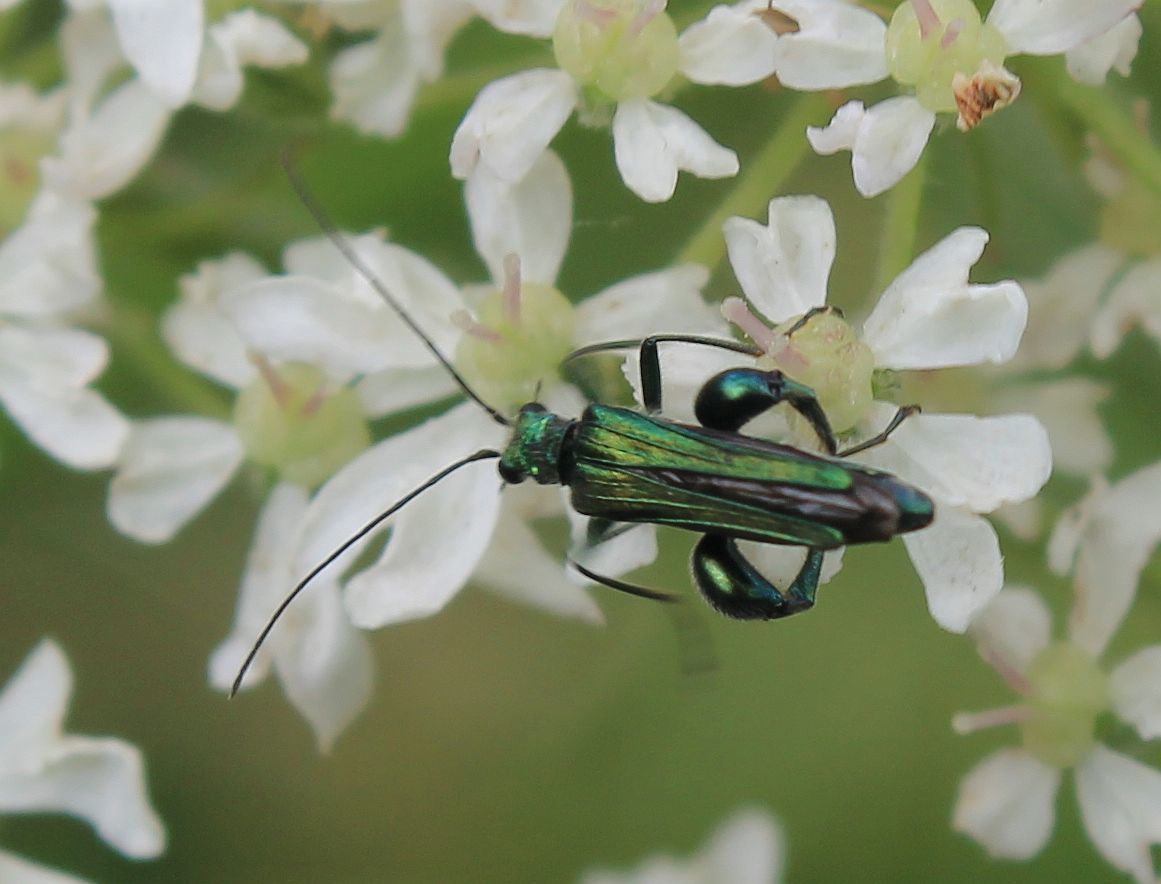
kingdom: Animalia
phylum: Arthropoda
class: Insecta
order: Coleoptera
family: Oedemeridae
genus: Oedemera
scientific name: Oedemera nobilis
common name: Swollen-thighed beetle
